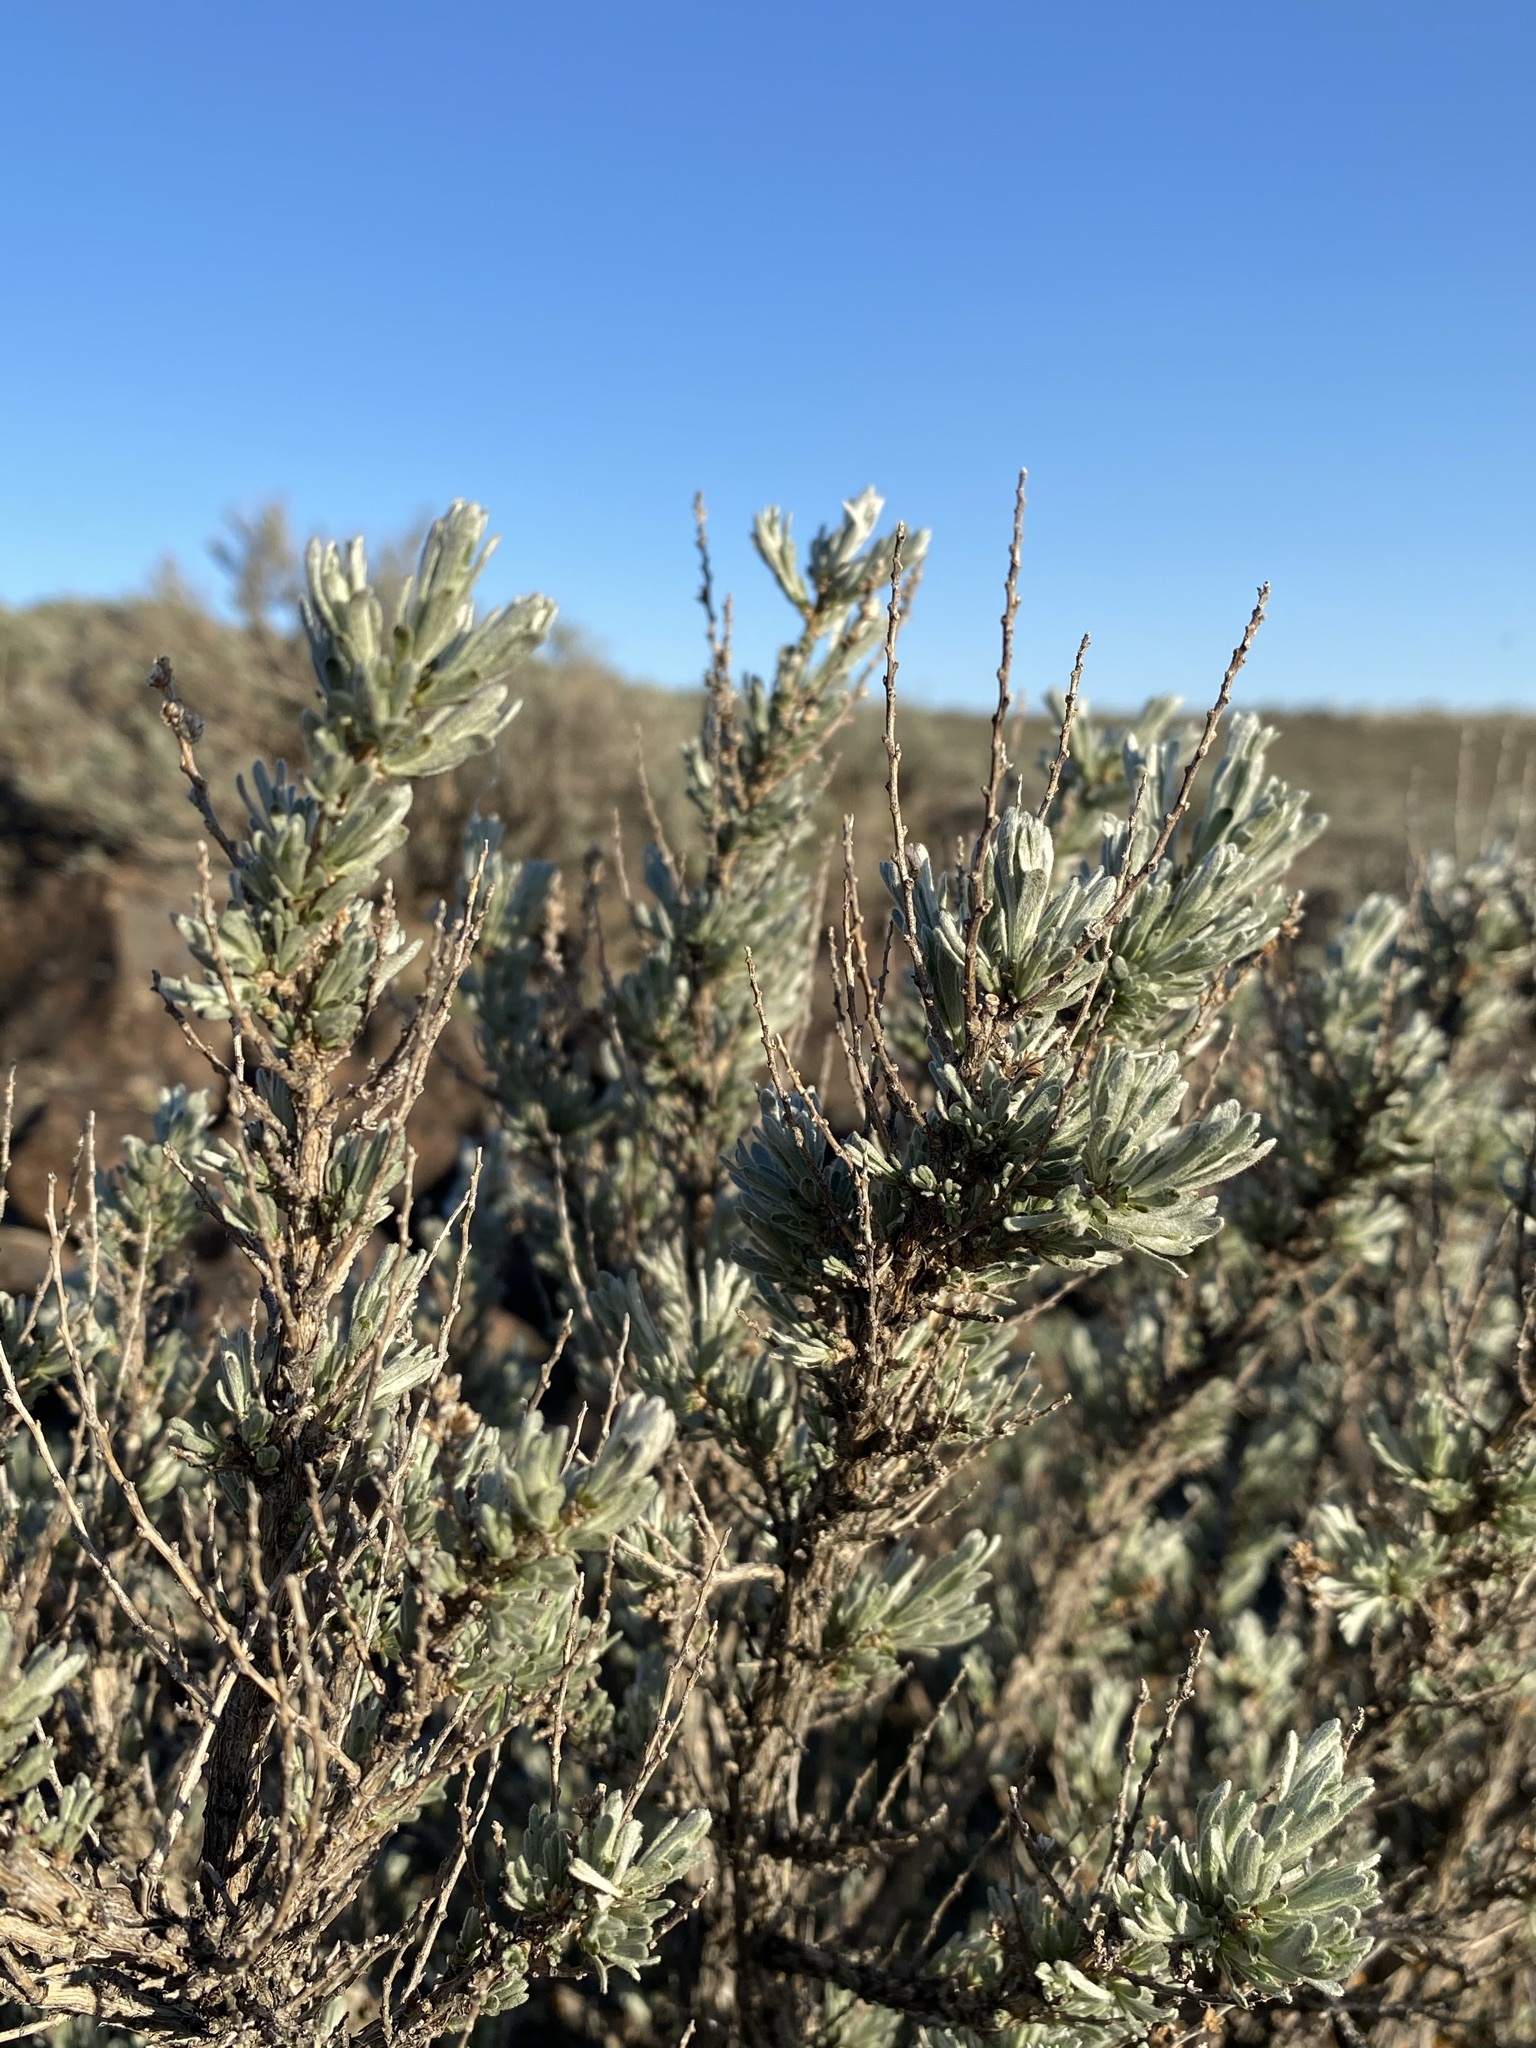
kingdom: Plantae
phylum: Tracheophyta
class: Magnoliopsida
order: Asterales
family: Asteraceae
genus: Artemisia
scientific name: Artemisia rigida
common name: Scabland sagebrush
